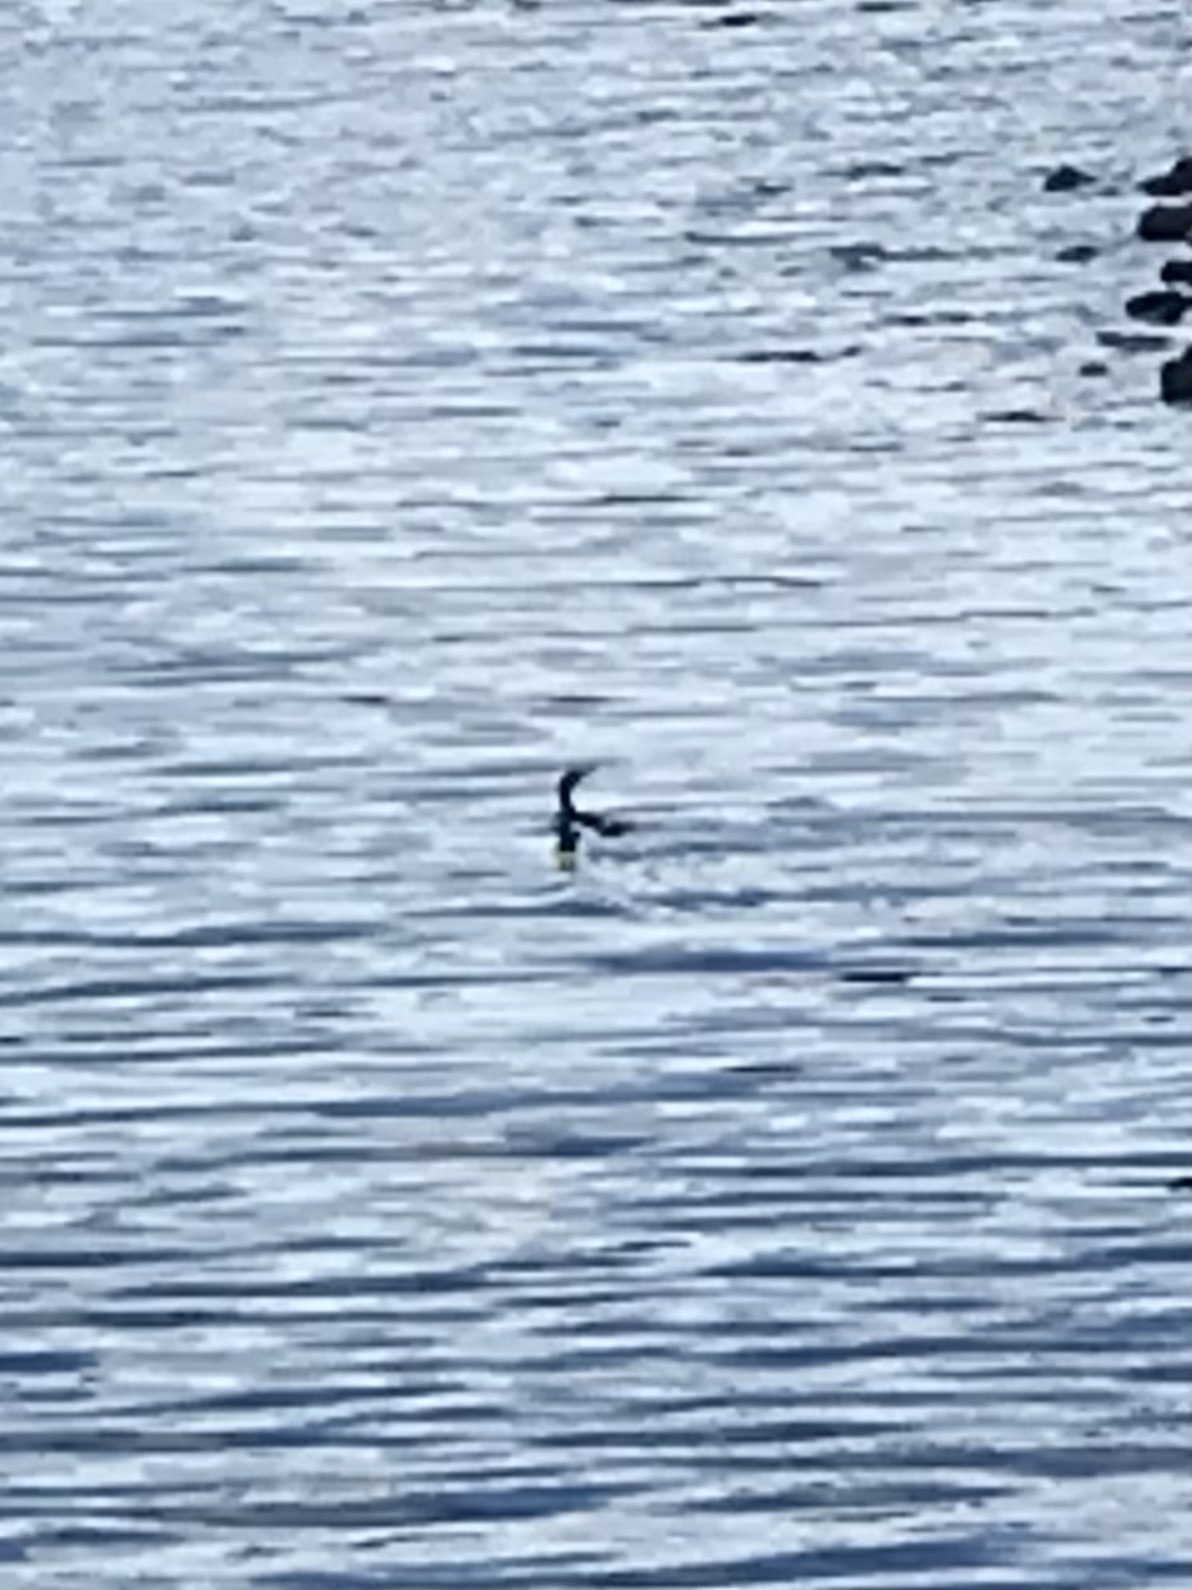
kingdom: Animalia
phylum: Chordata
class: Aves
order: Suliformes
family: Phalacrocoracidae
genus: Phalacrocorax
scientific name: Phalacrocorax auritus
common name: Double-crested cormorant
